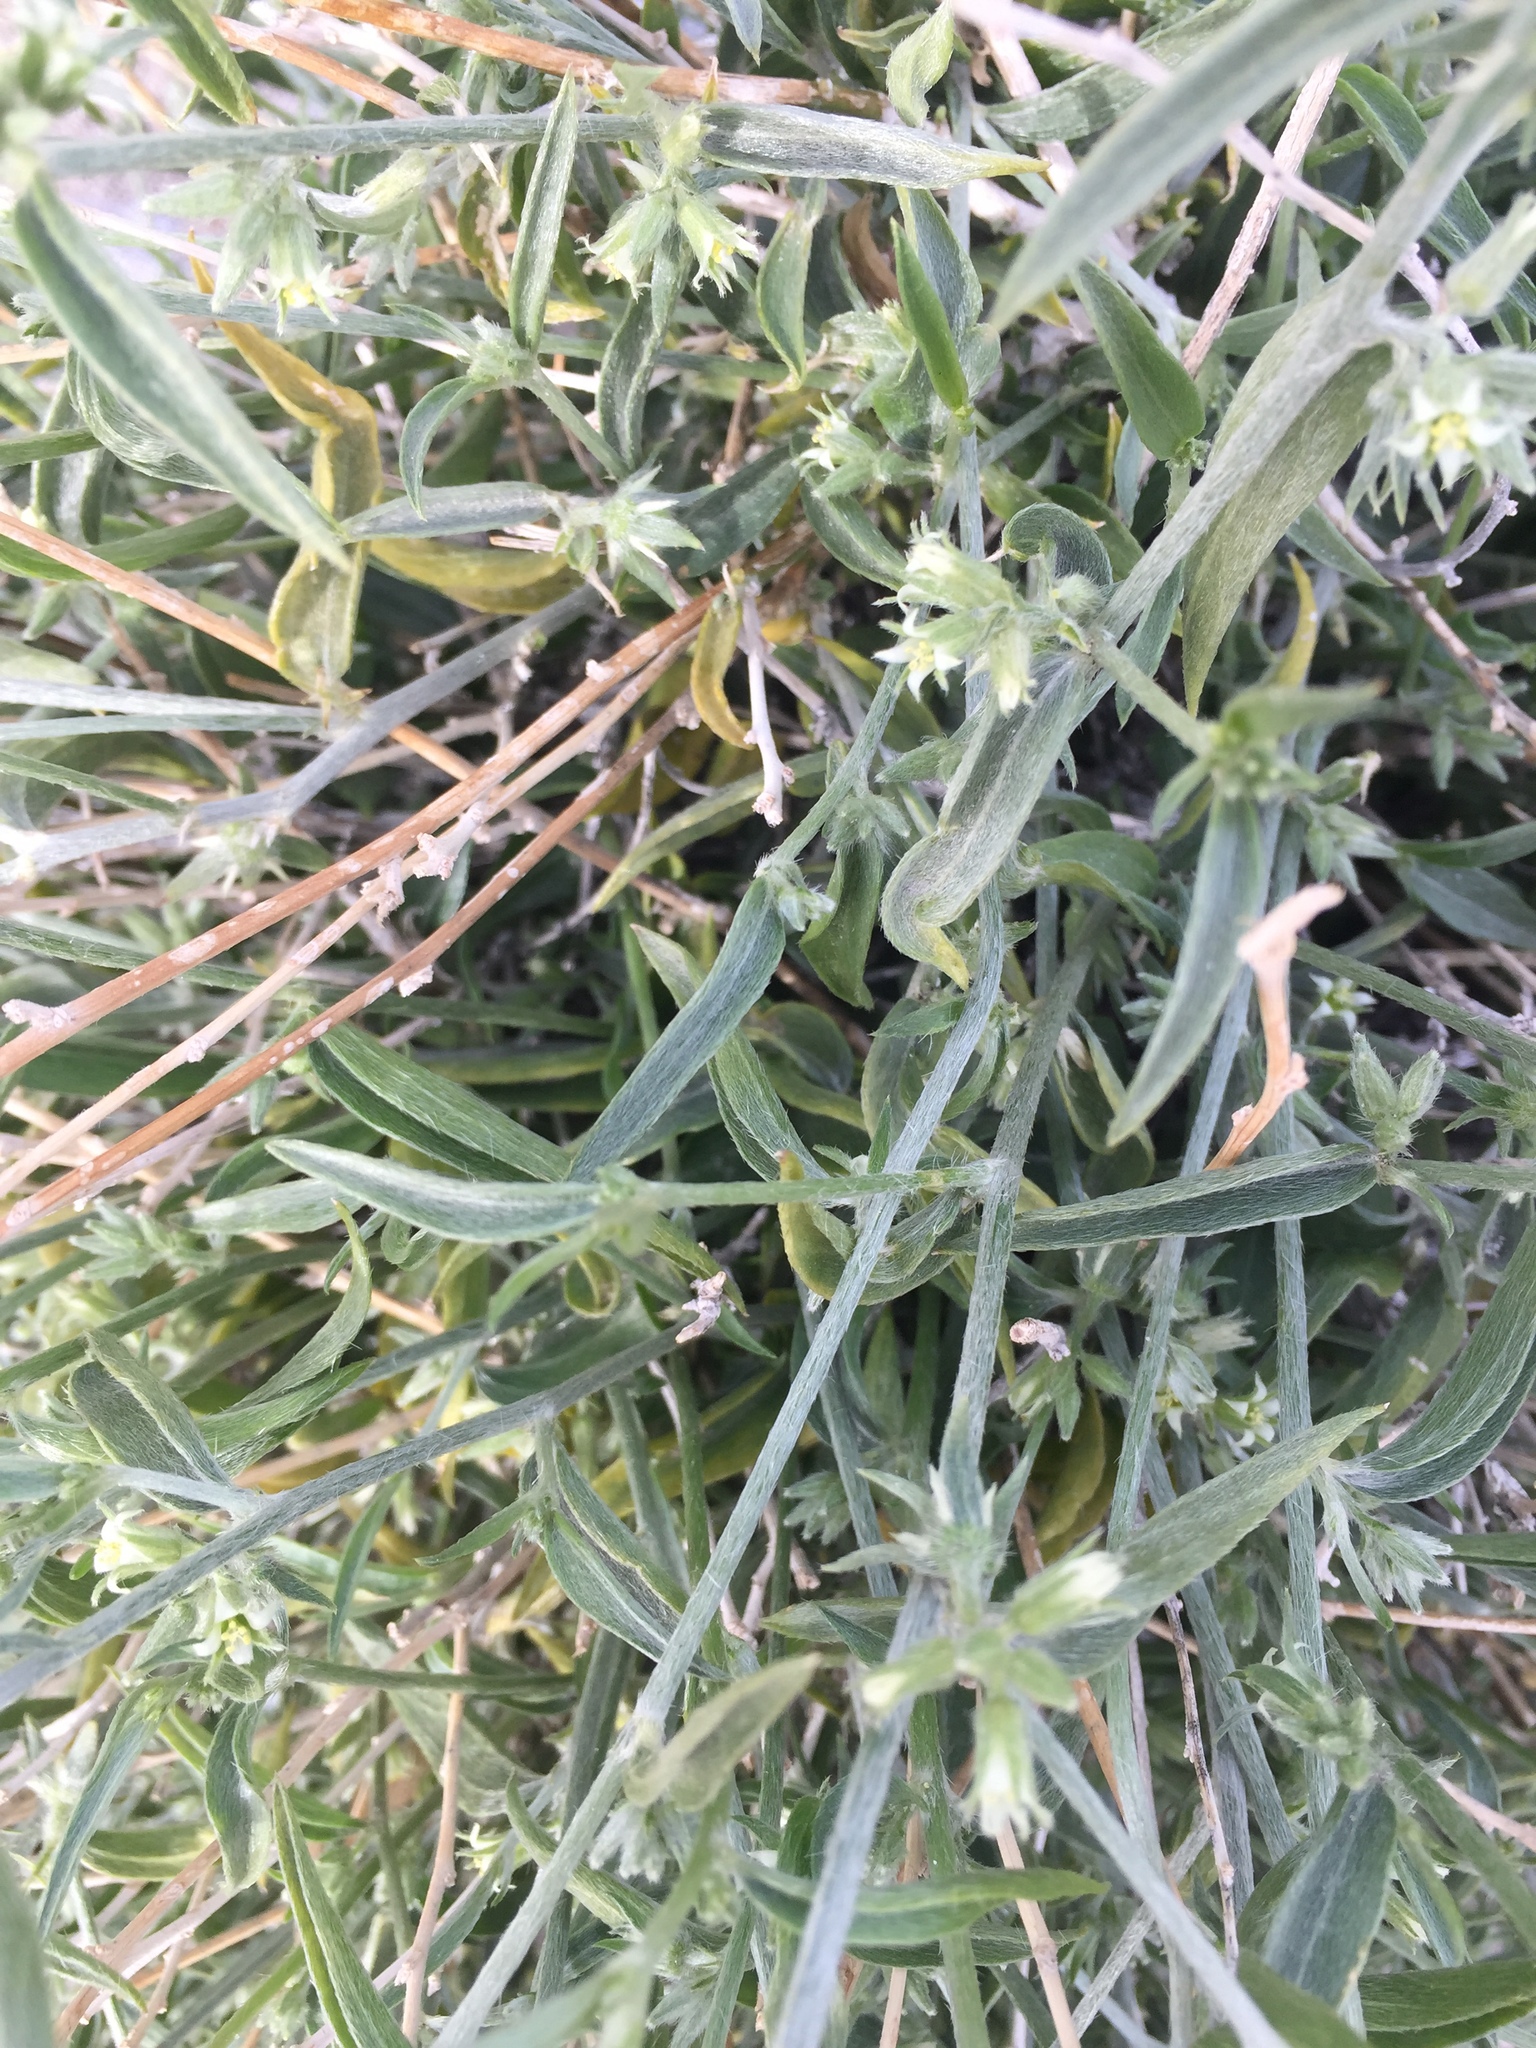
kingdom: Plantae
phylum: Tracheophyta
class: Magnoliopsida
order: Malpighiales
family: Euphorbiaceae
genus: Ditaxis
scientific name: Ditaxis lanceolata
